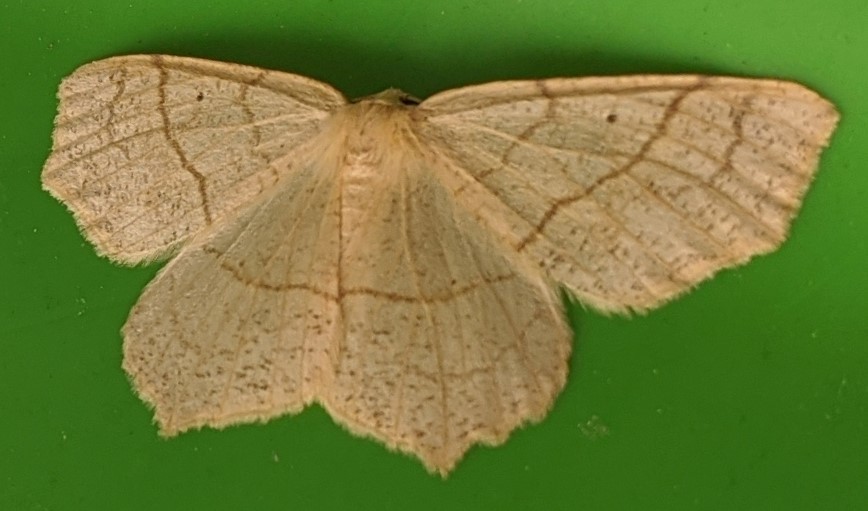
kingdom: Animalia
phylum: Arthropoda
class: Insecta
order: Lepidoptera
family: Geometridae
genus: Besma
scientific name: Besma quercivoraria
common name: Oak besma
